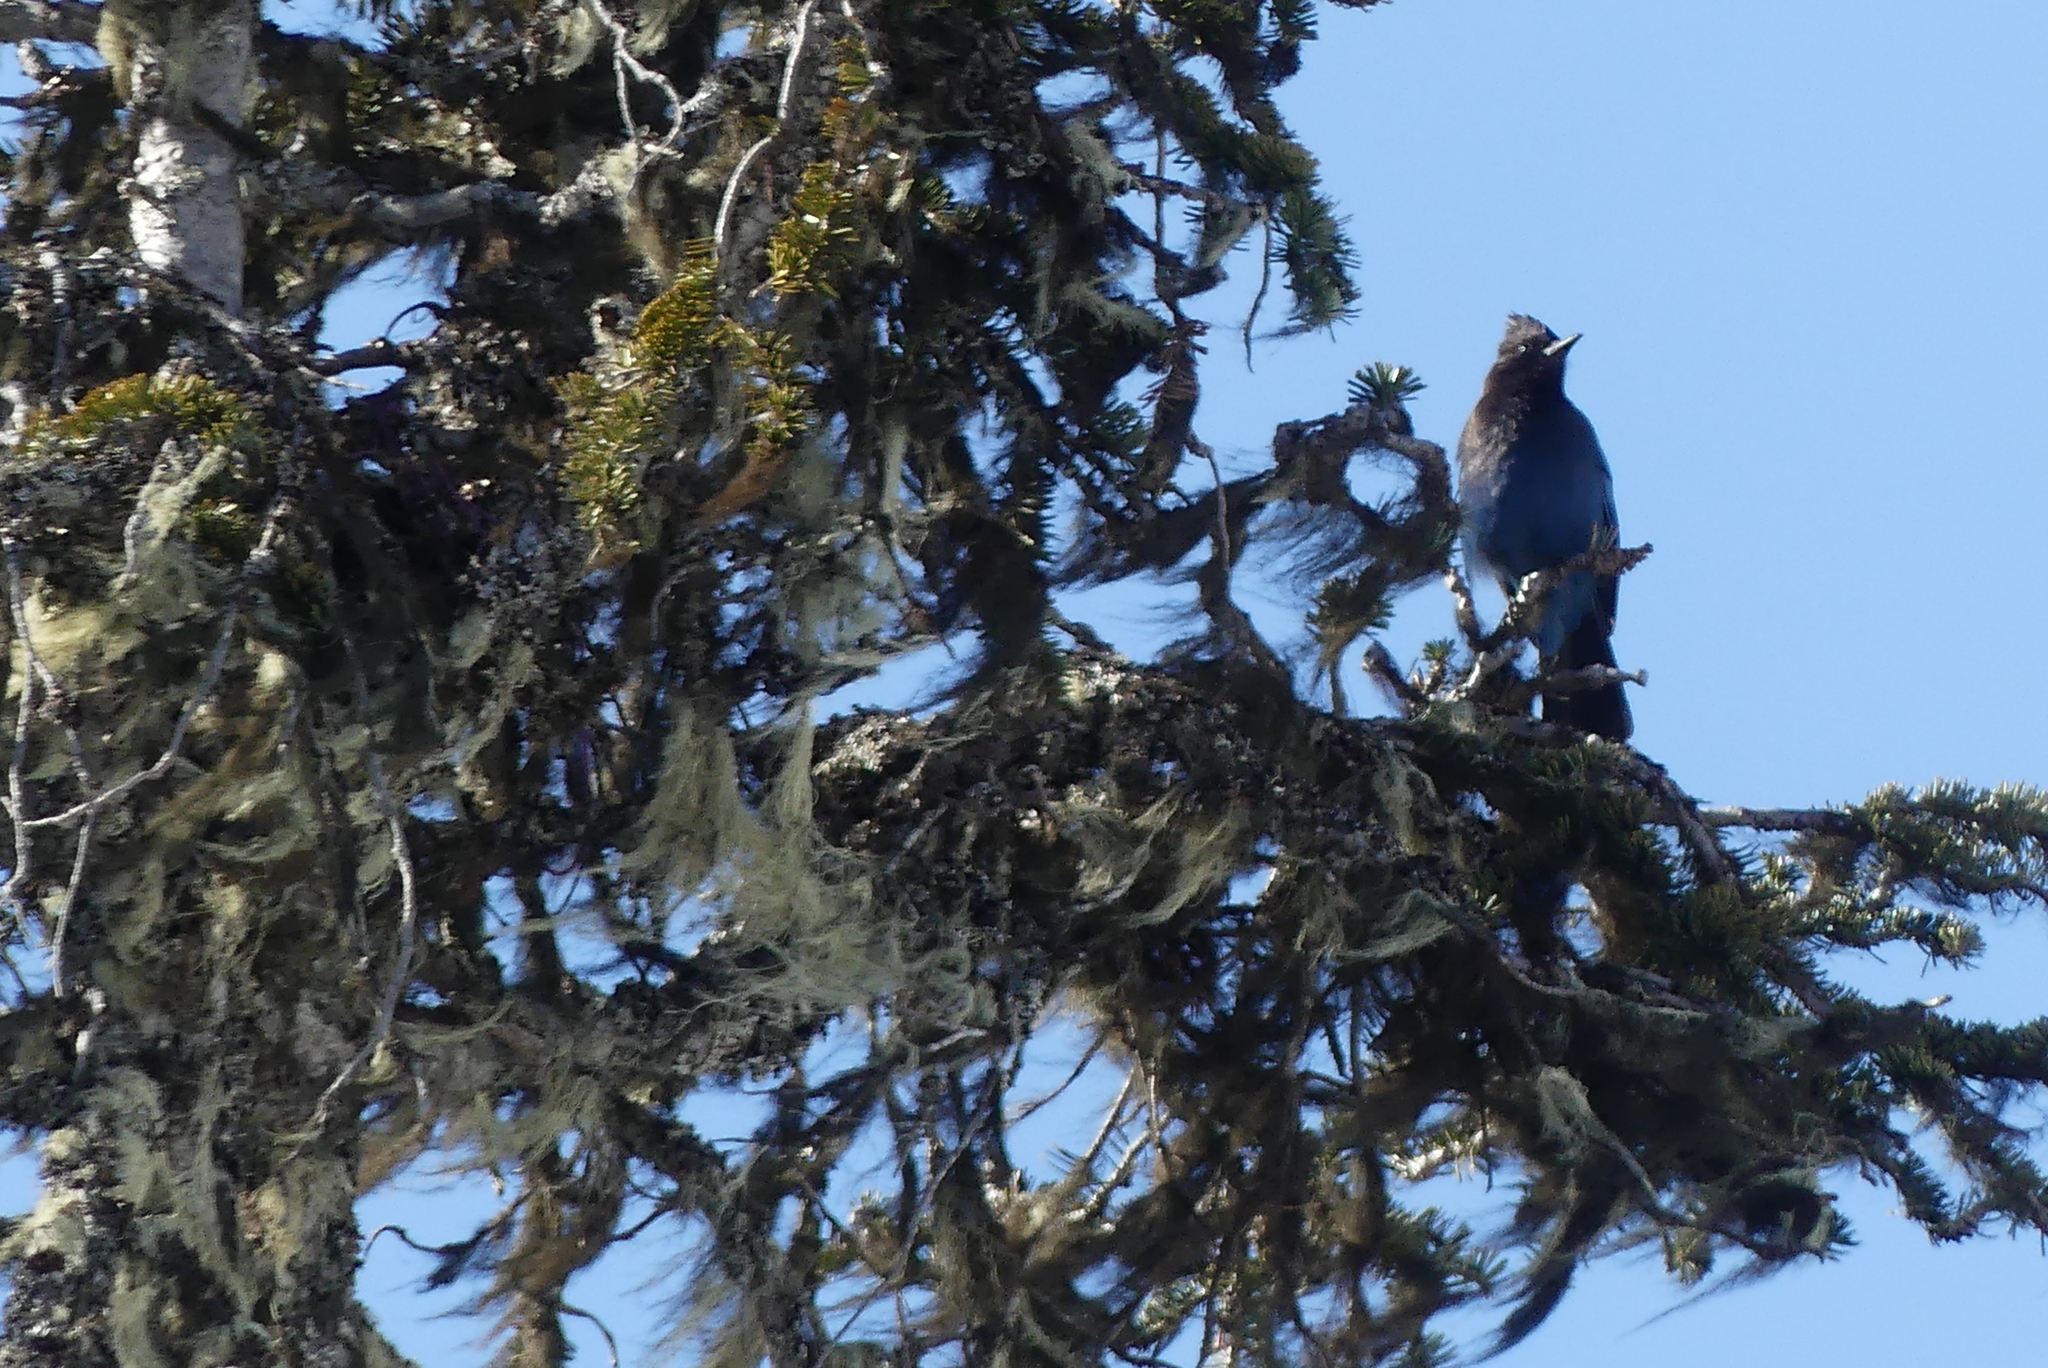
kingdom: Animalia
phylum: Chordata
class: Aves
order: Passeriformes
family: Corvidae
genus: Cyanocitta
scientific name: Cyanocitta stelleri
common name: Steller's jay
